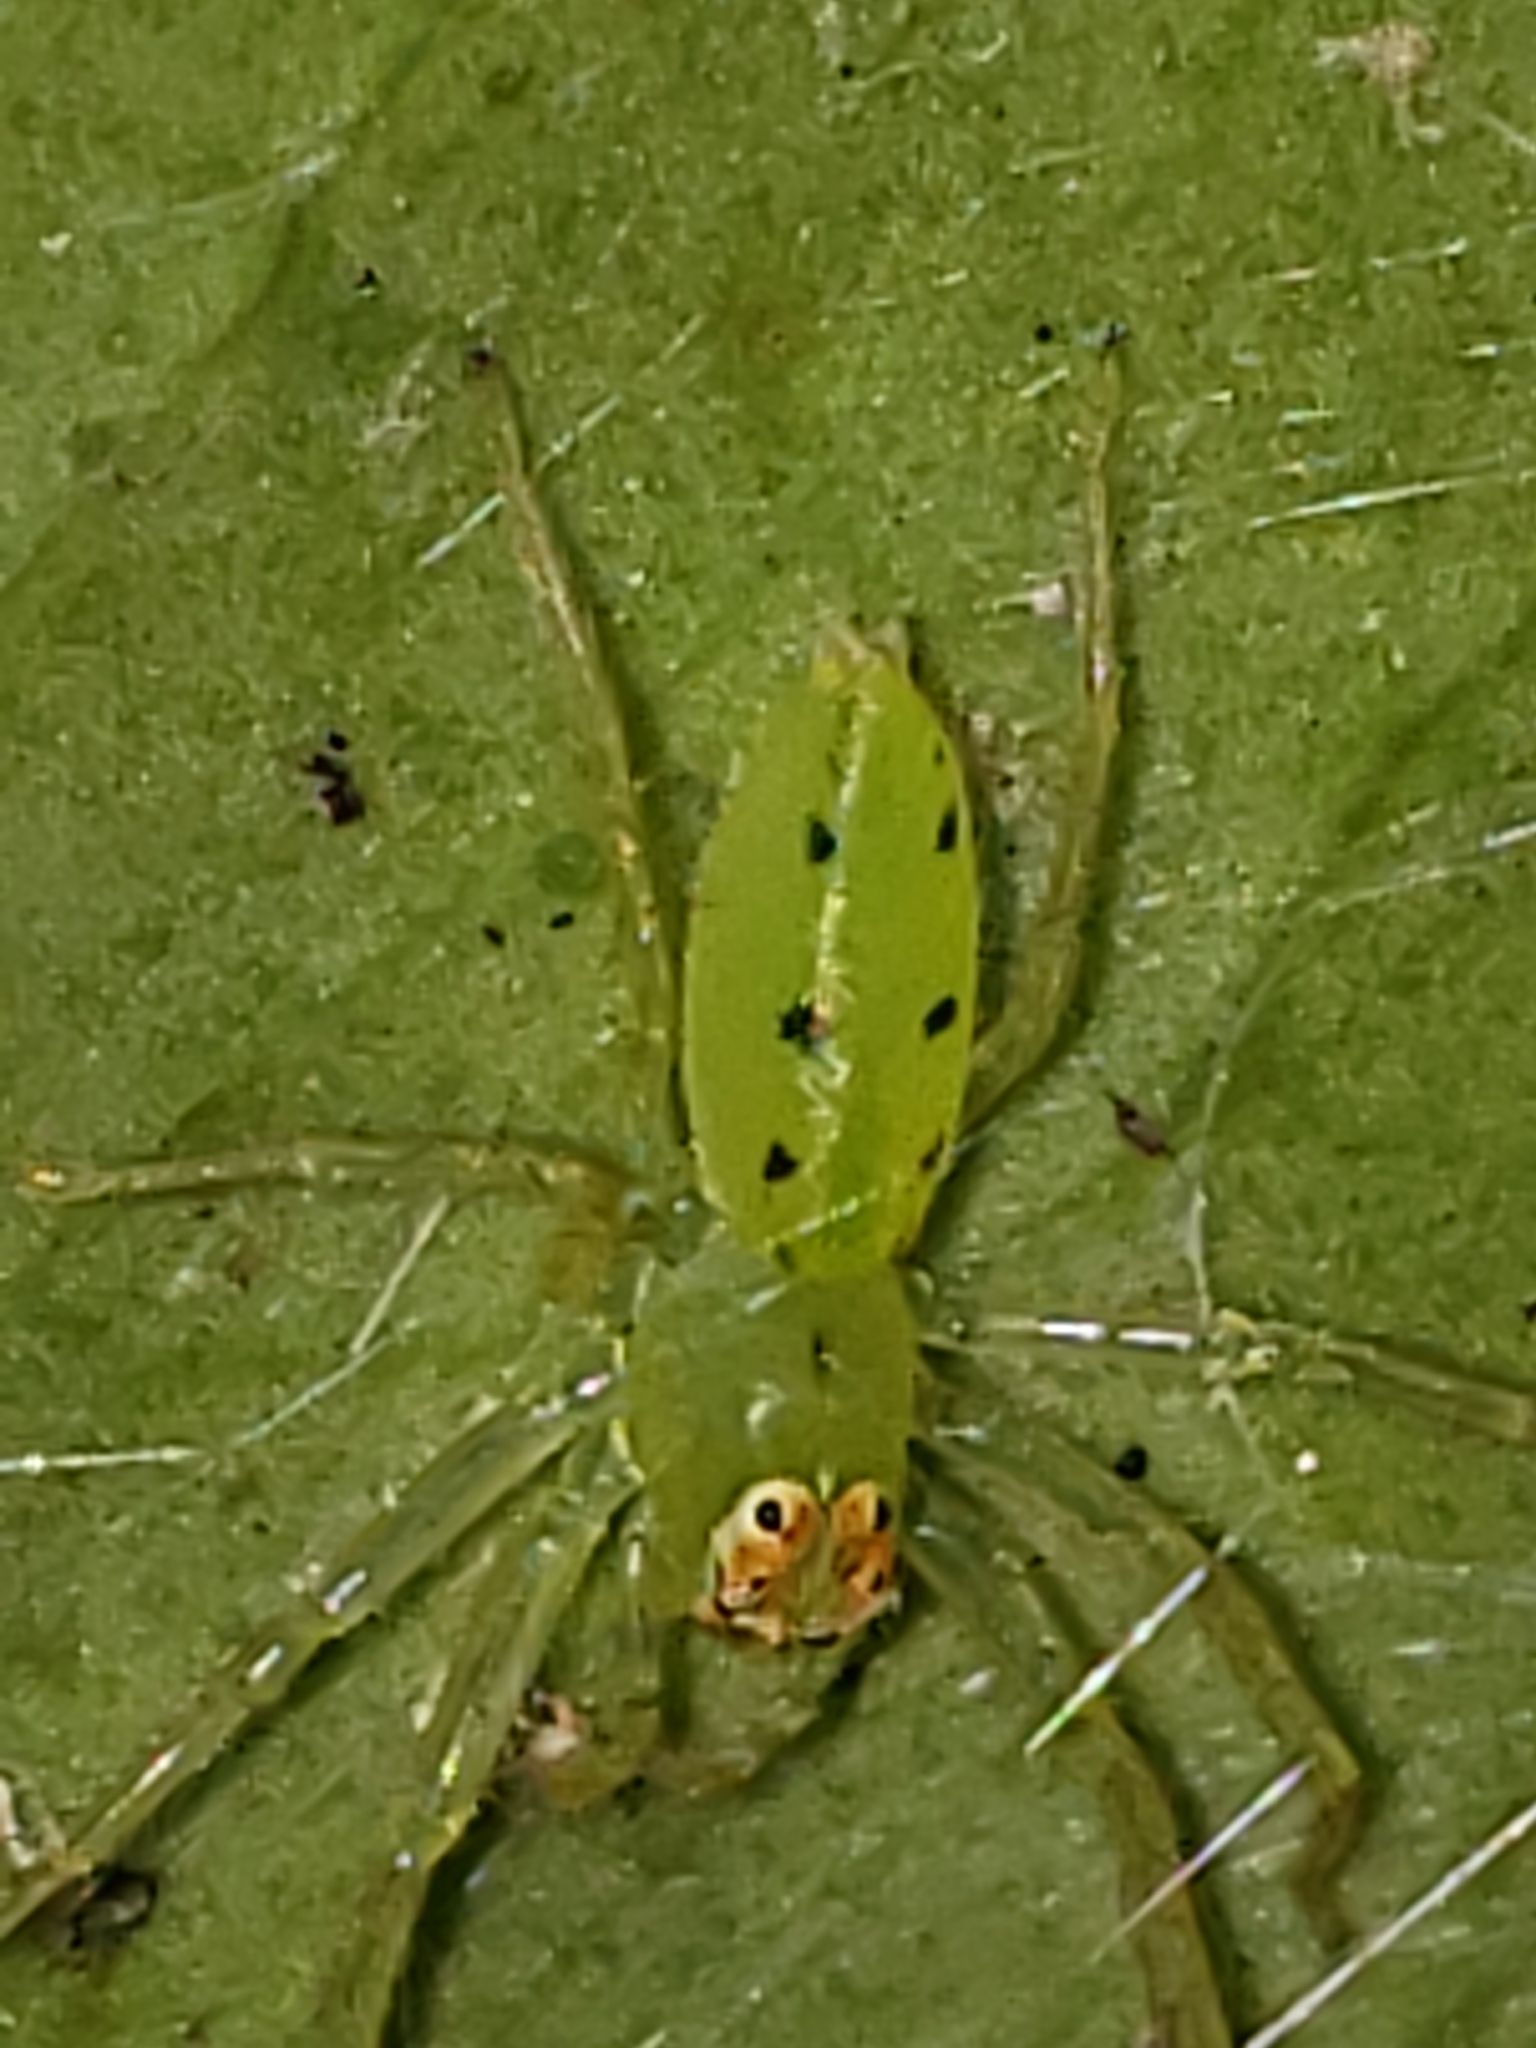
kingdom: Animalia
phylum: Arthropoda
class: Arachnida
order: Araneae
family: Salticidae
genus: Lyssomanes
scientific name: Lyssomanes viridis
